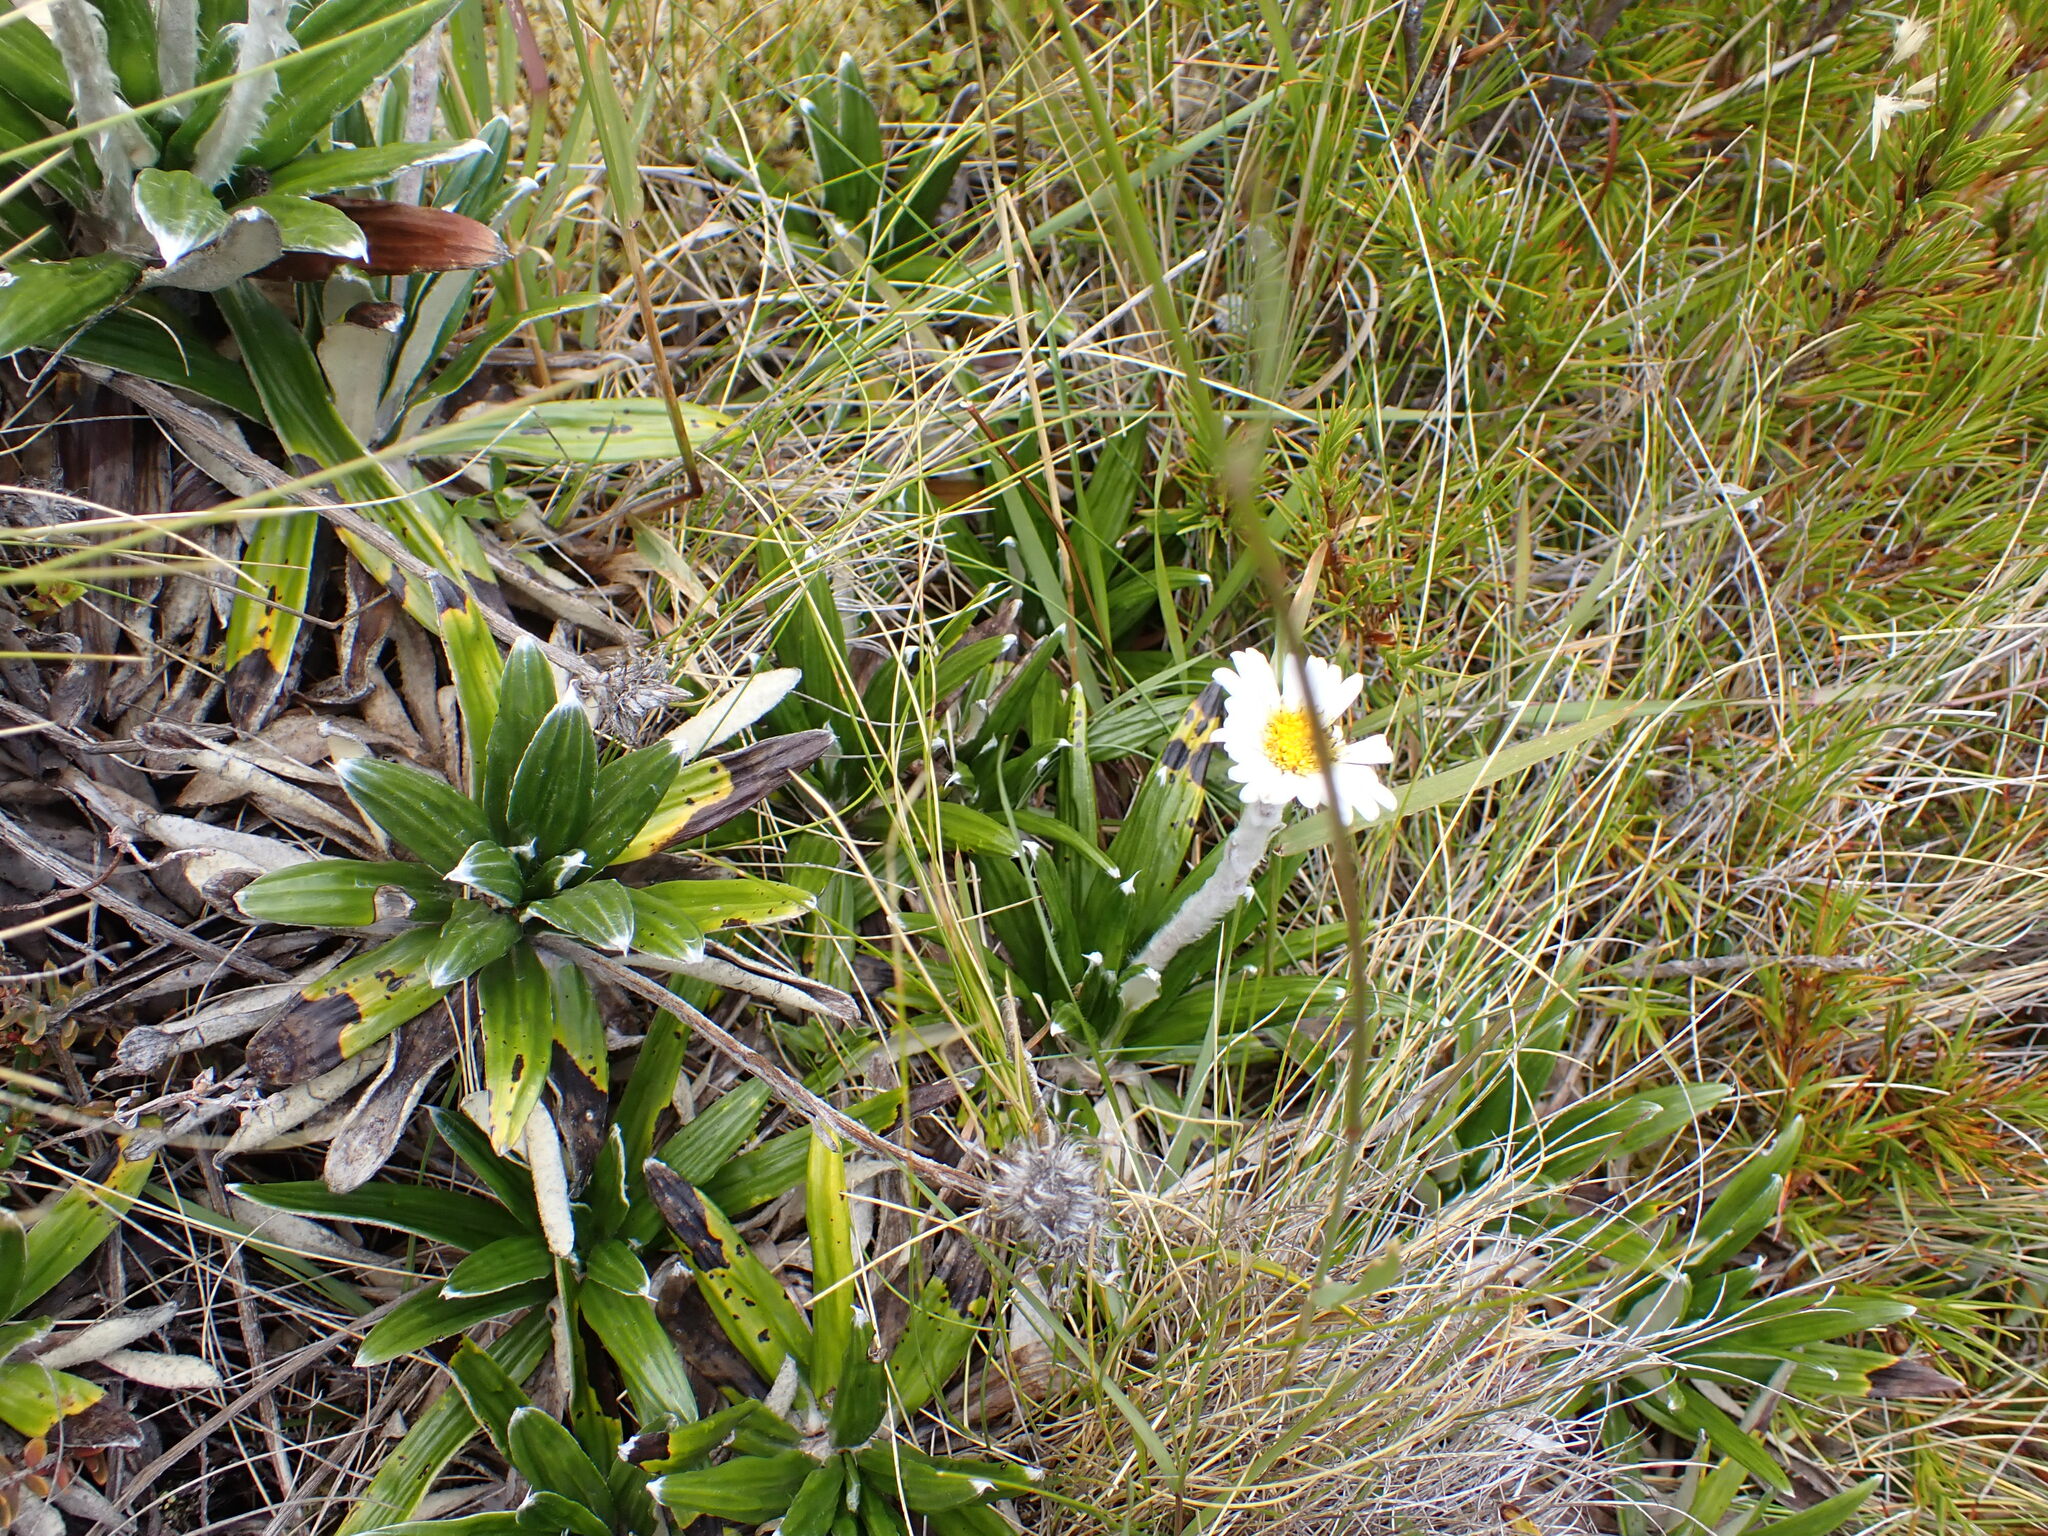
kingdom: Plantae
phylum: Tracheophyta
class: Magnoliopsida
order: Asterales
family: Asteraceae
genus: Celmisia
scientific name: Celmisia spectabilis
